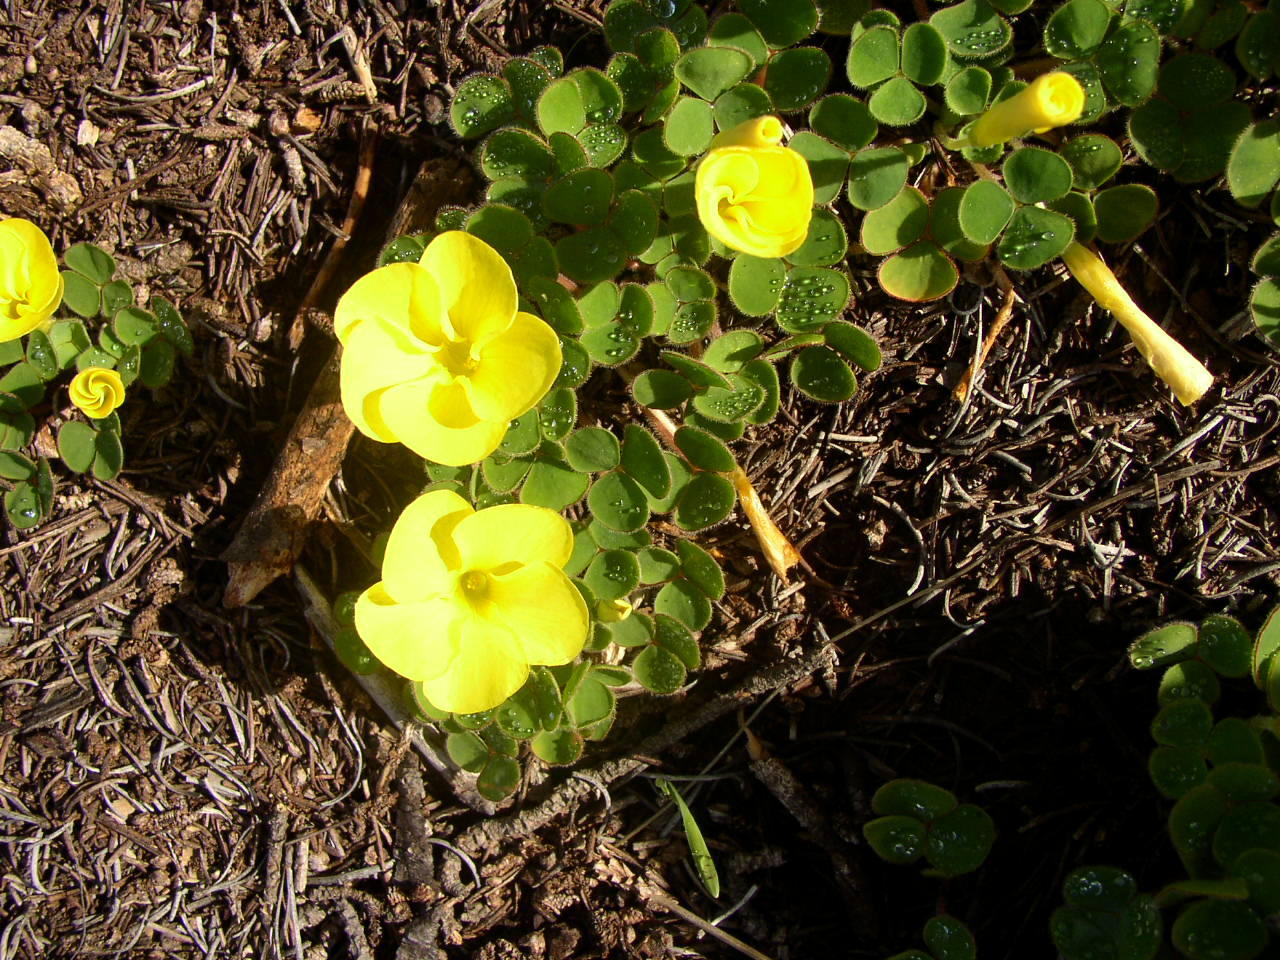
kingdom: Plantae
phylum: Tracheophyta
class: Magnoliopsida
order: Oxalidales
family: Oxalidaceae
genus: Oxalis
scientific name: Oxalis luteola
